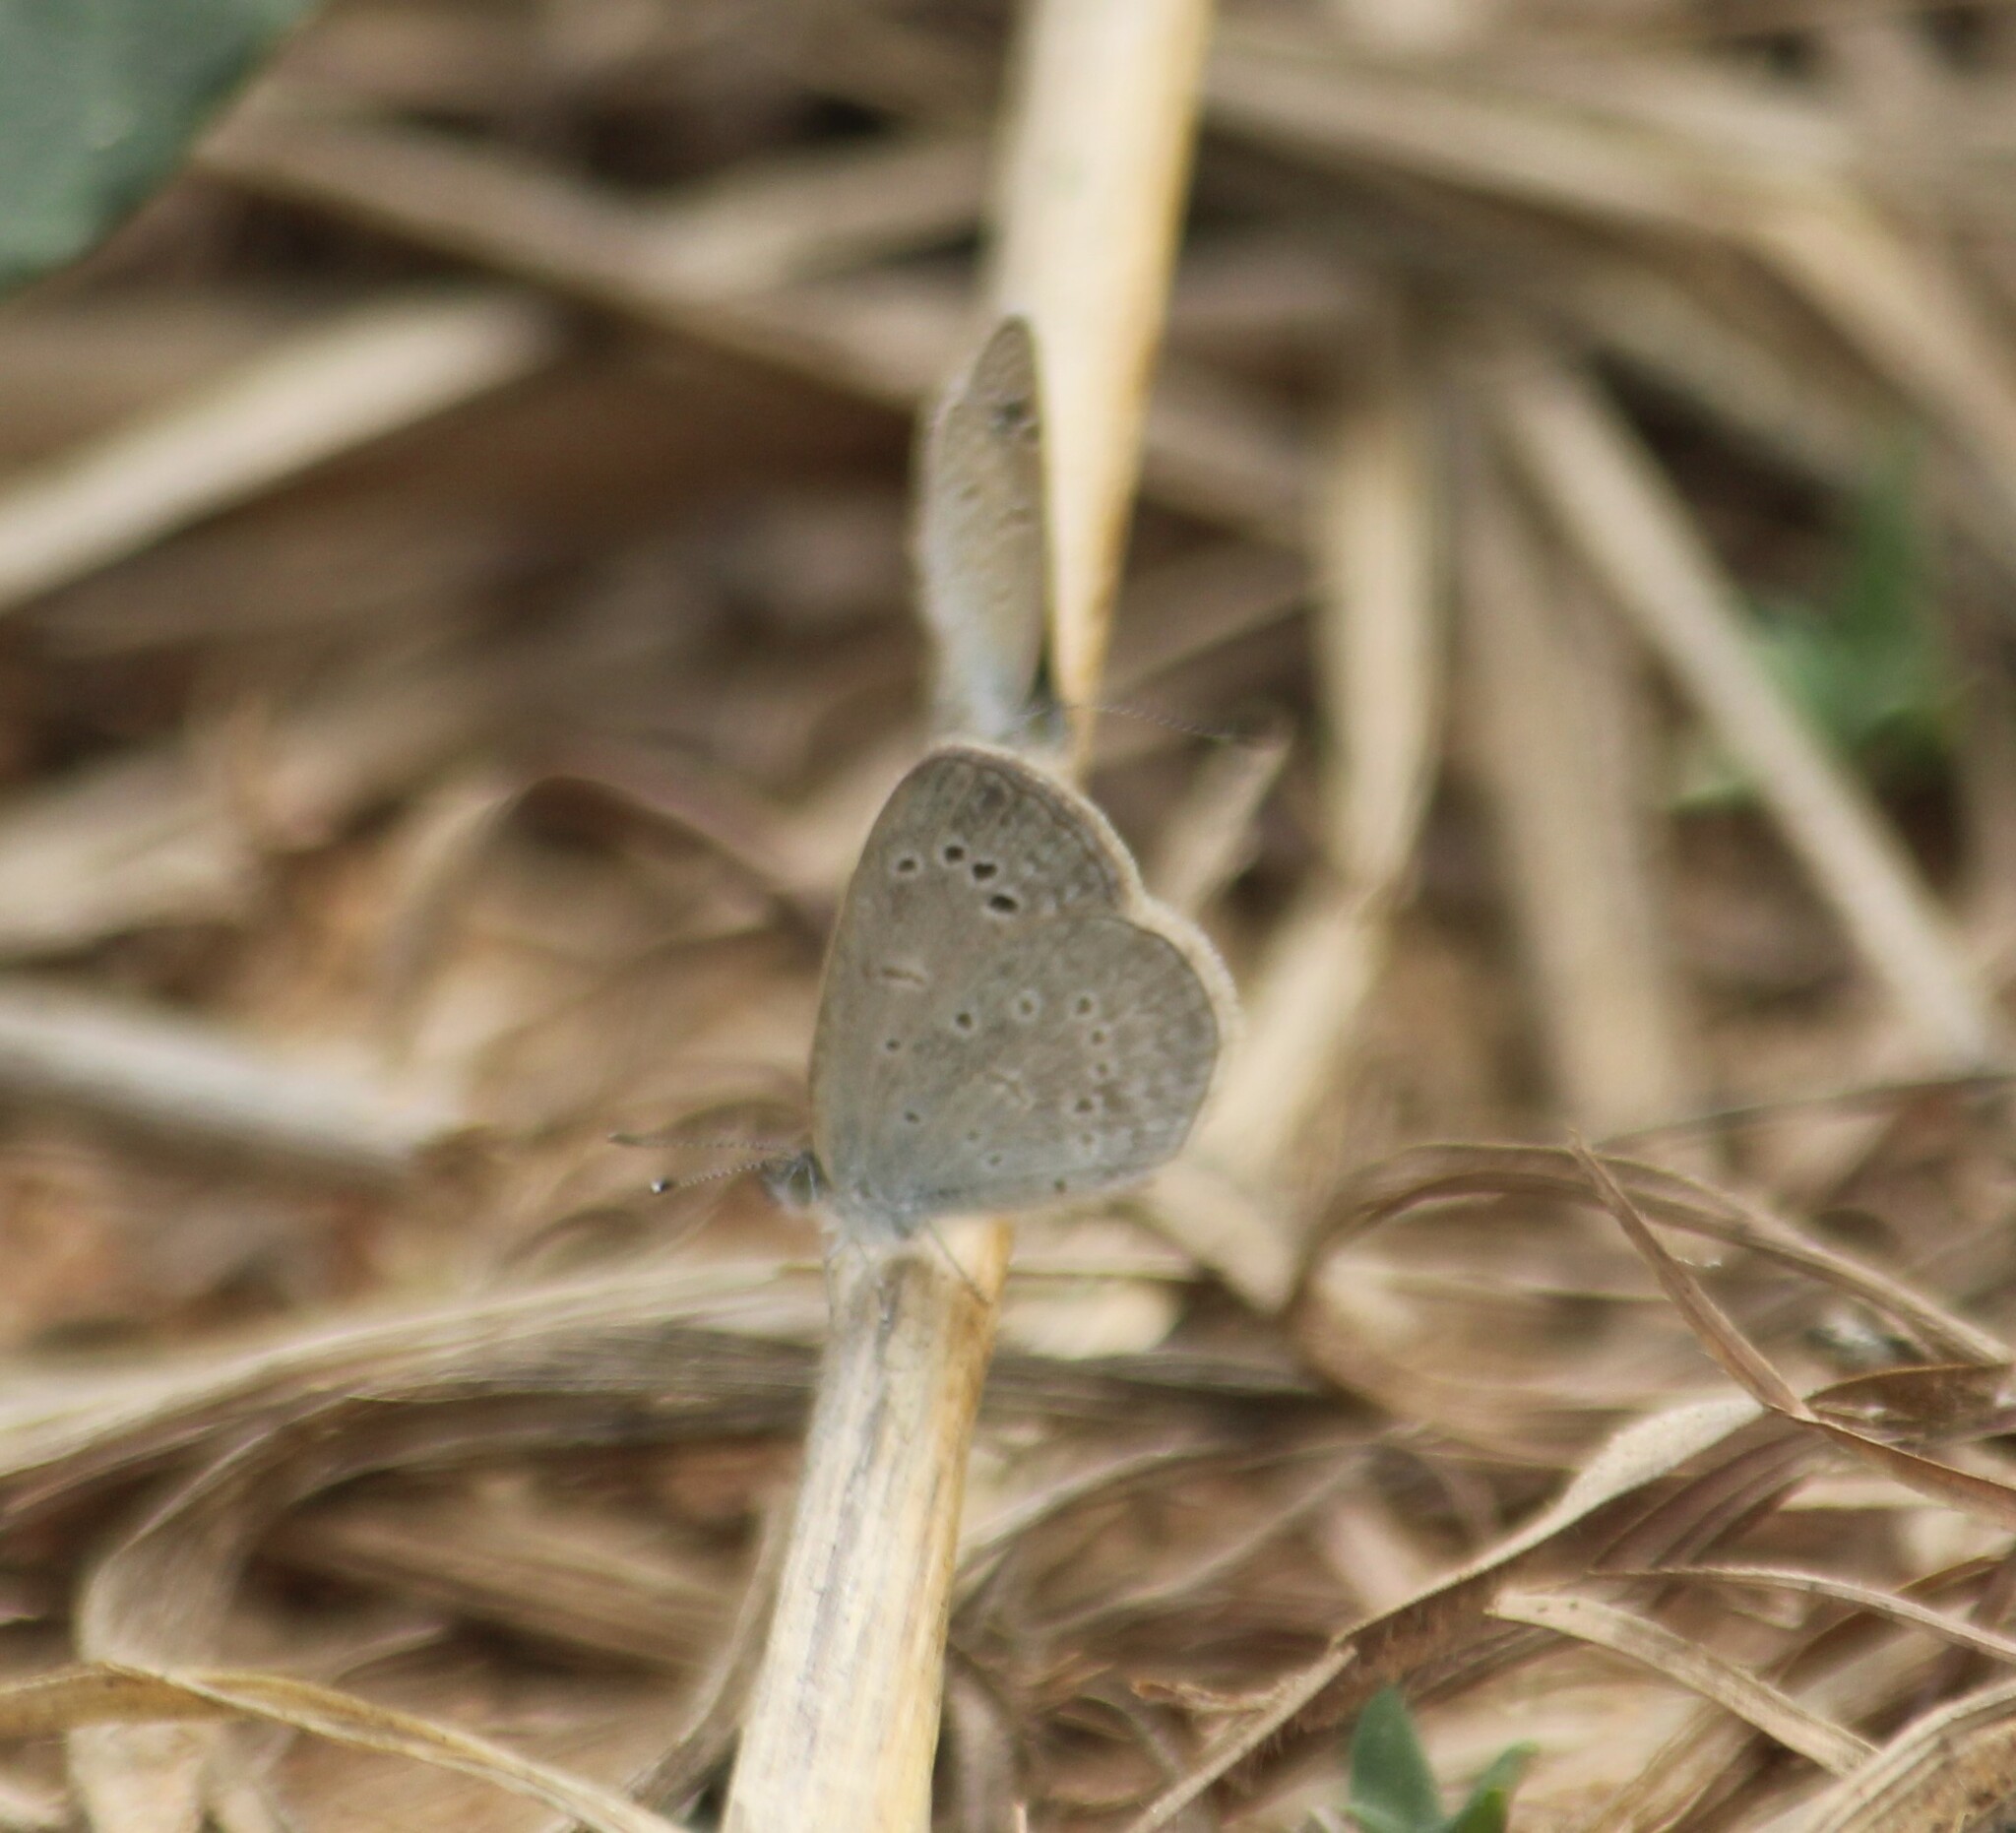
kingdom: Animalia
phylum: Arthropoda
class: Insecta
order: Lepidoptera
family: Lycaenidae
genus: Pseudozizeeria
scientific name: Pseudozizeeria maha
